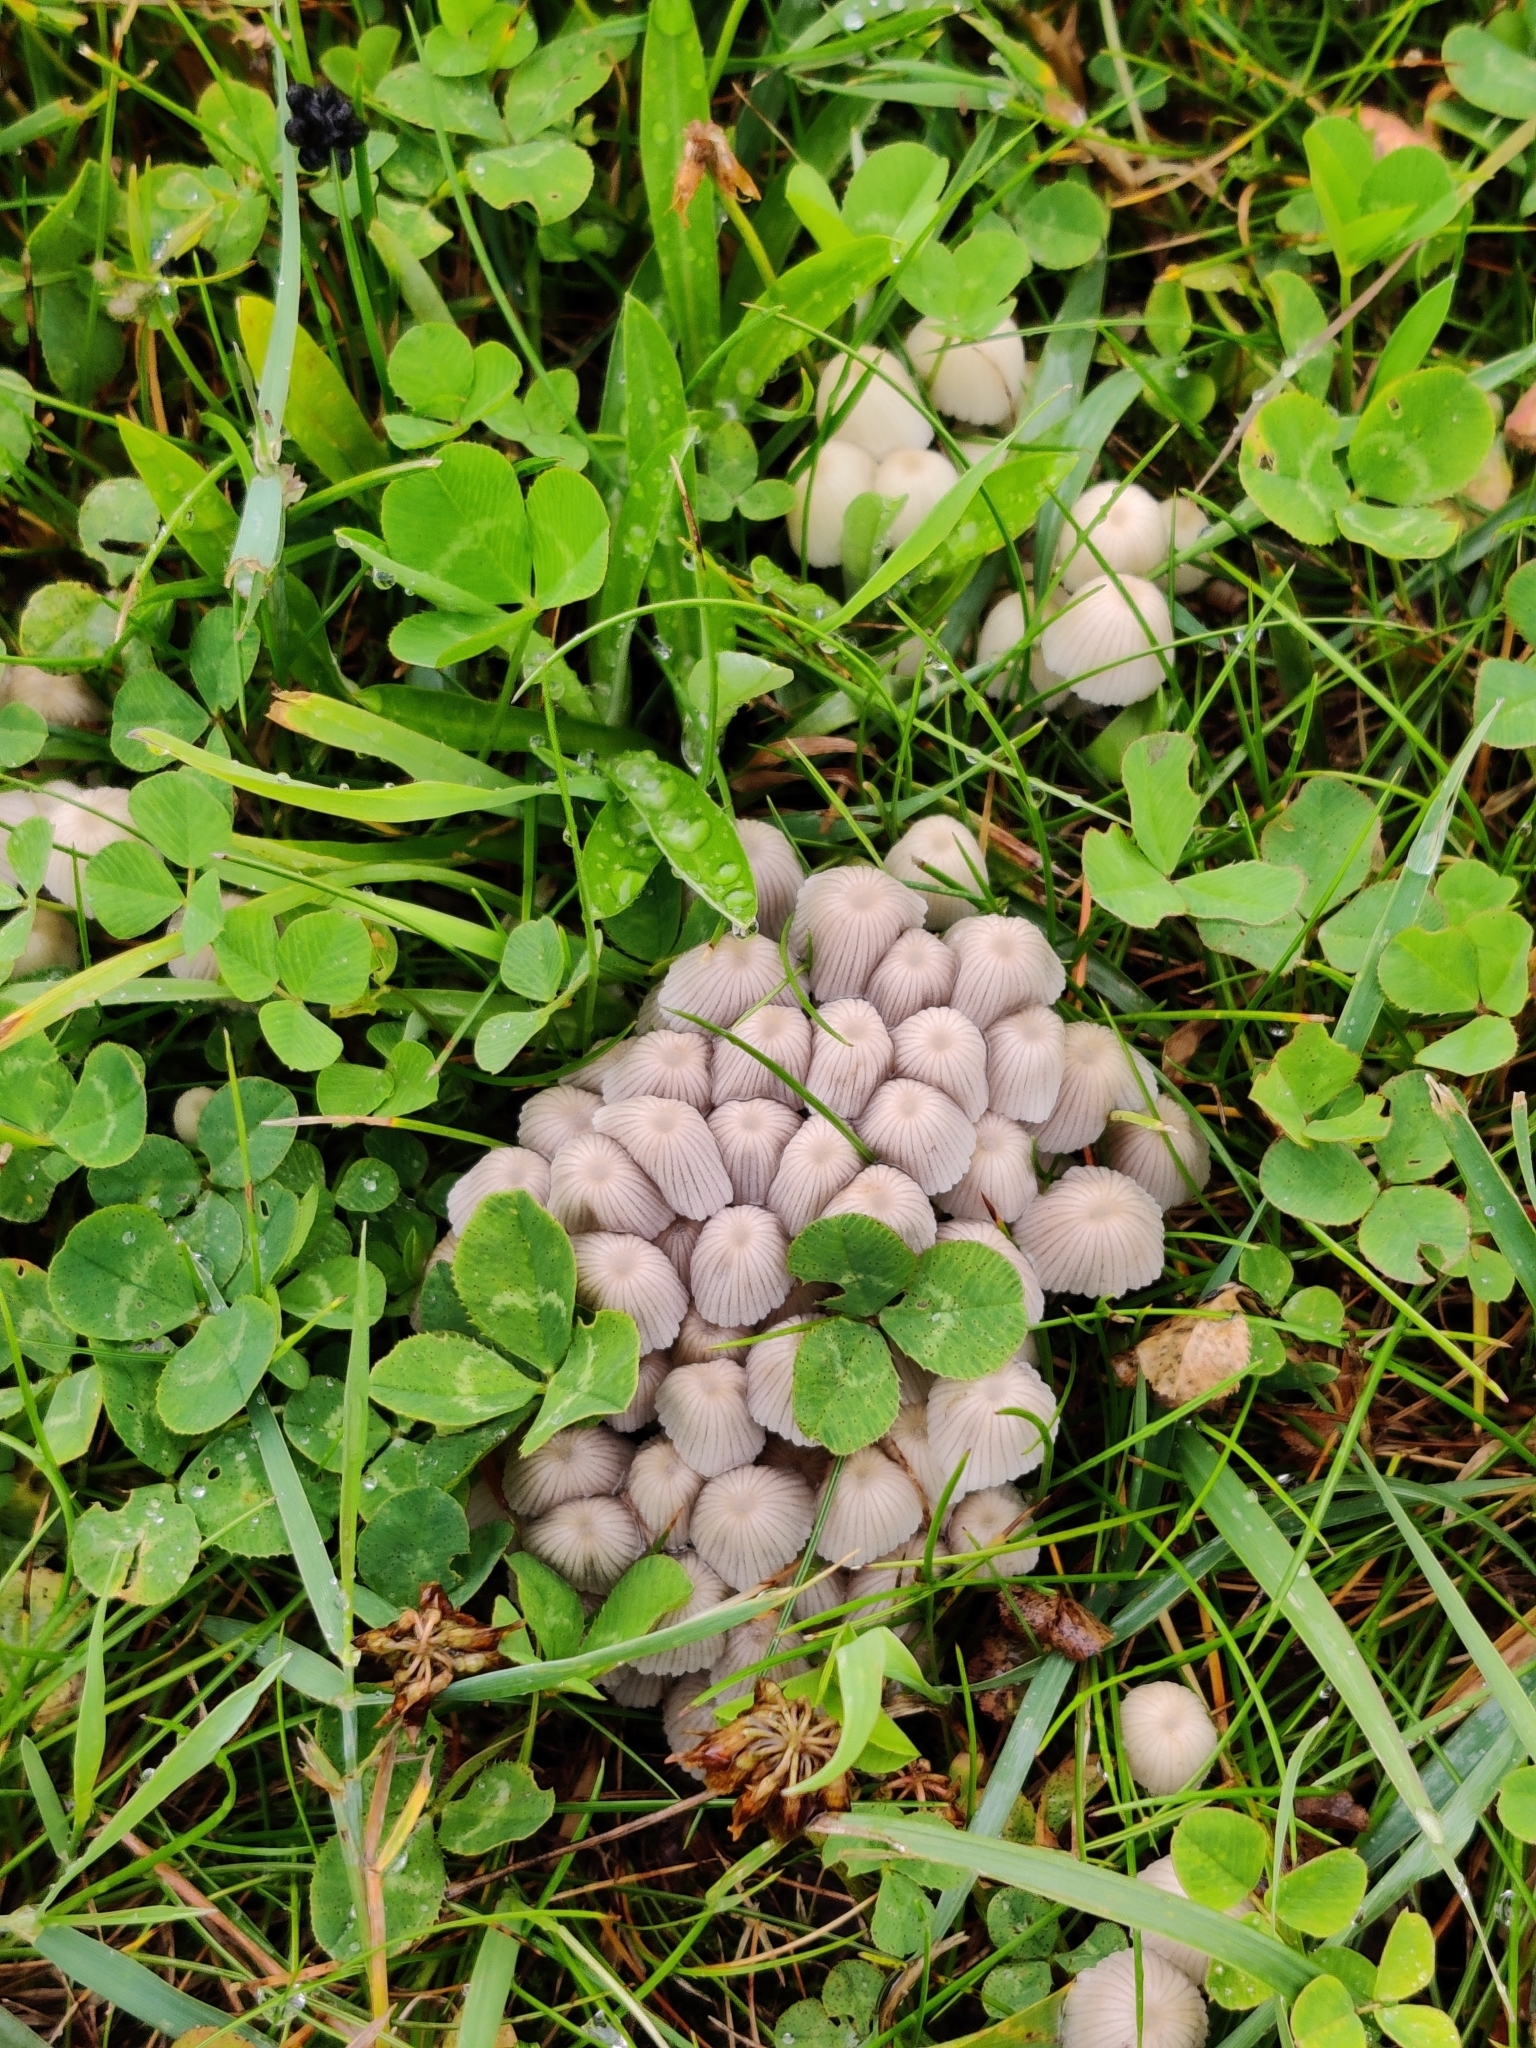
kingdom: Fungi
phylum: Basidiomycota
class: Agaricomycetes
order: Agaricales
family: Psathyrellaceae
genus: Coprinellus
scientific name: Coprinellus disseminatus
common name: Fairies' bonnets
